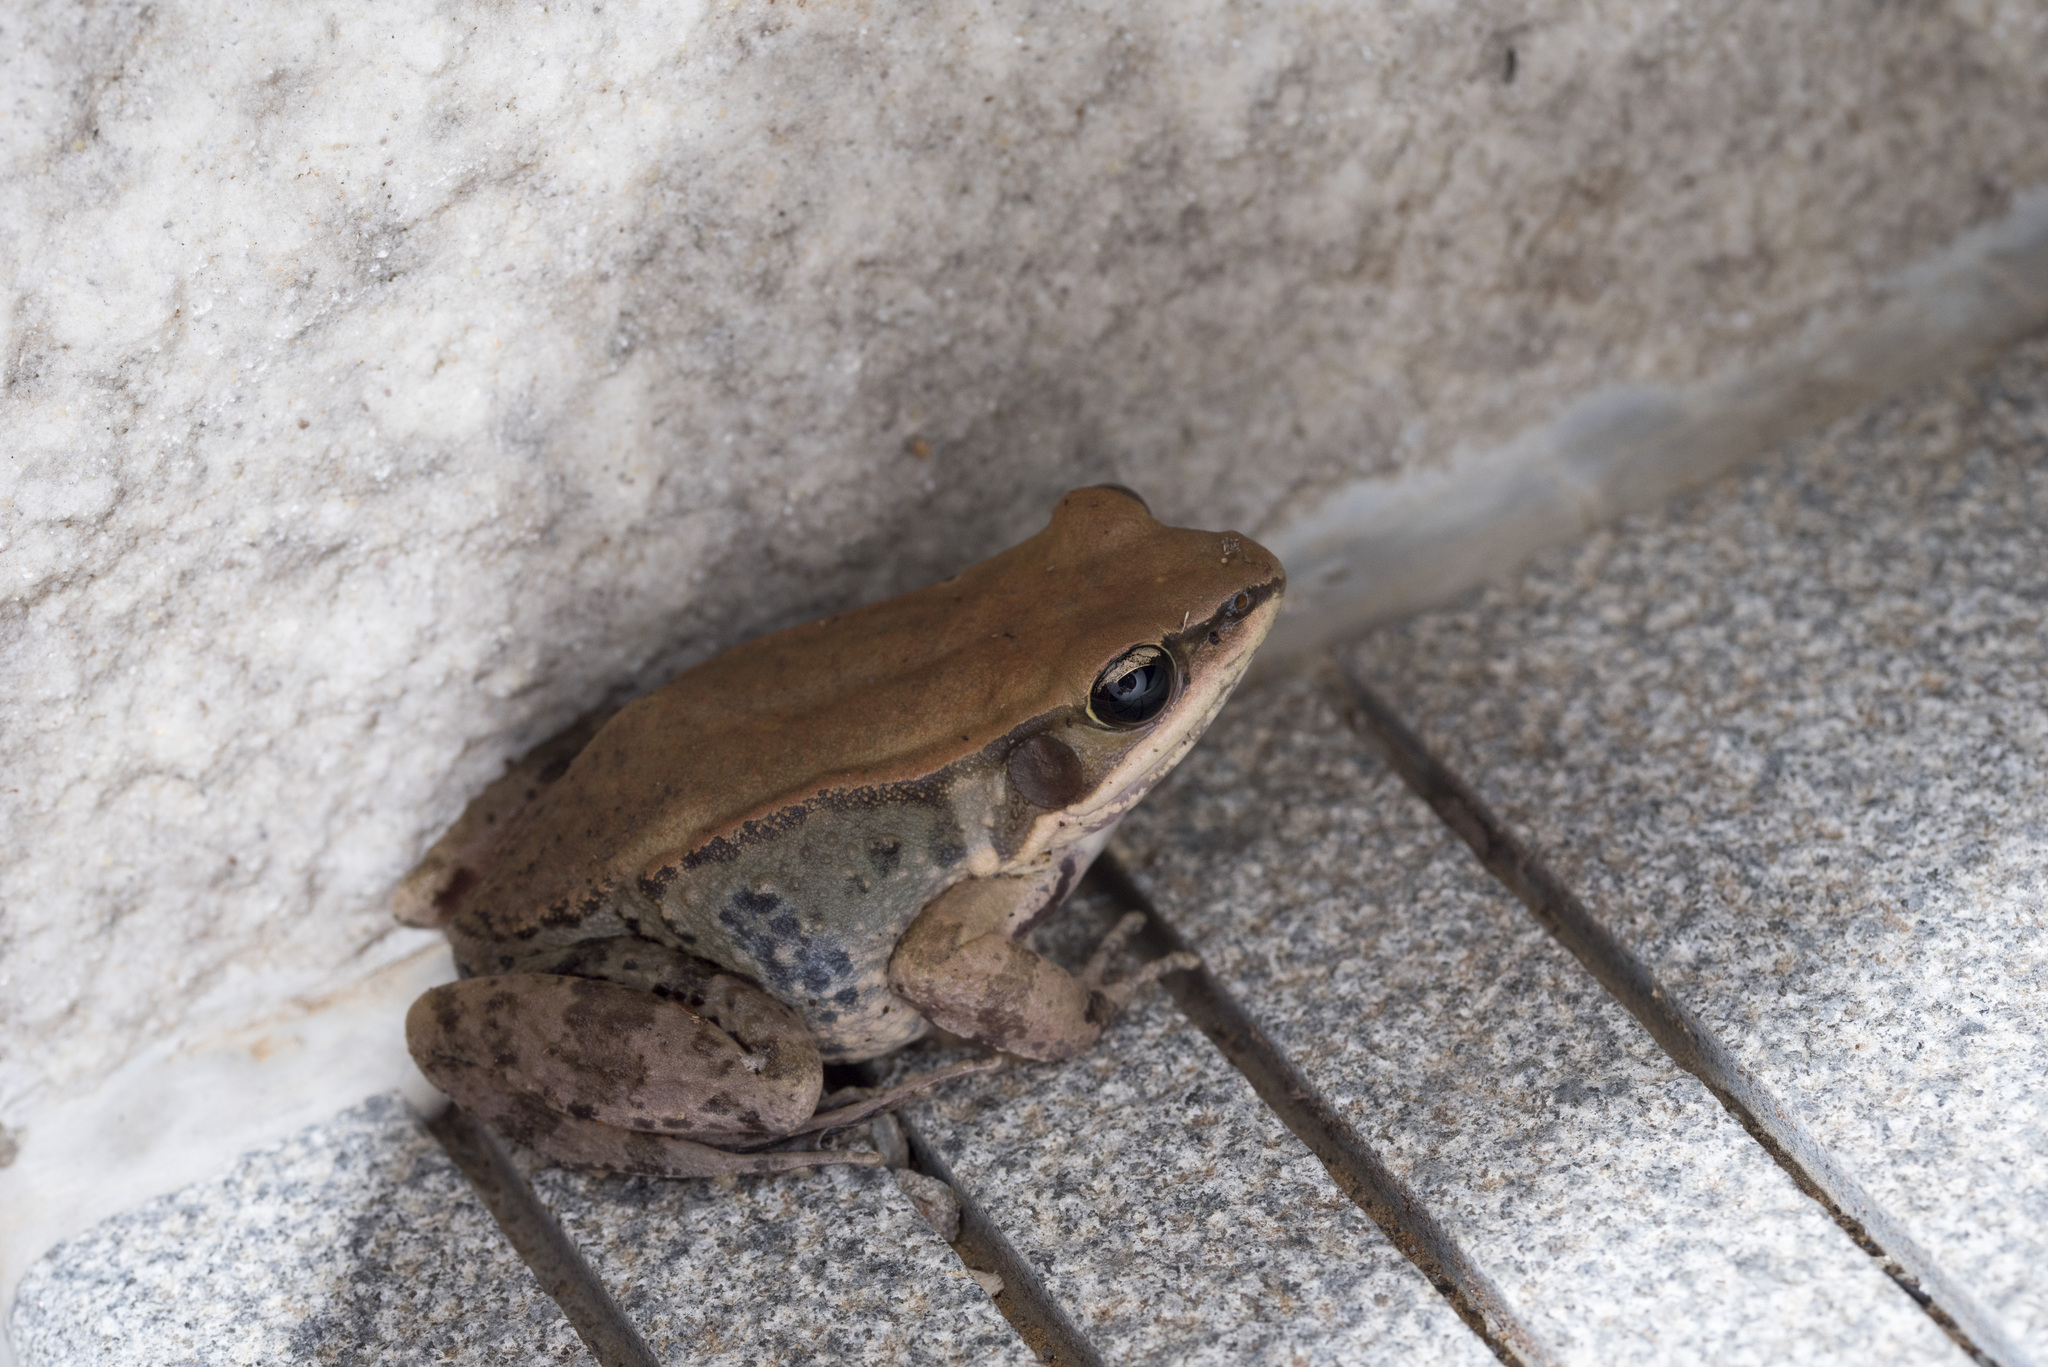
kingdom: Animalia
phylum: Chordata
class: Amphibia
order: Anura
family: Ranidae
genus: Hylarana
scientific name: Hylarana latouchii
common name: Broad-folded frog
